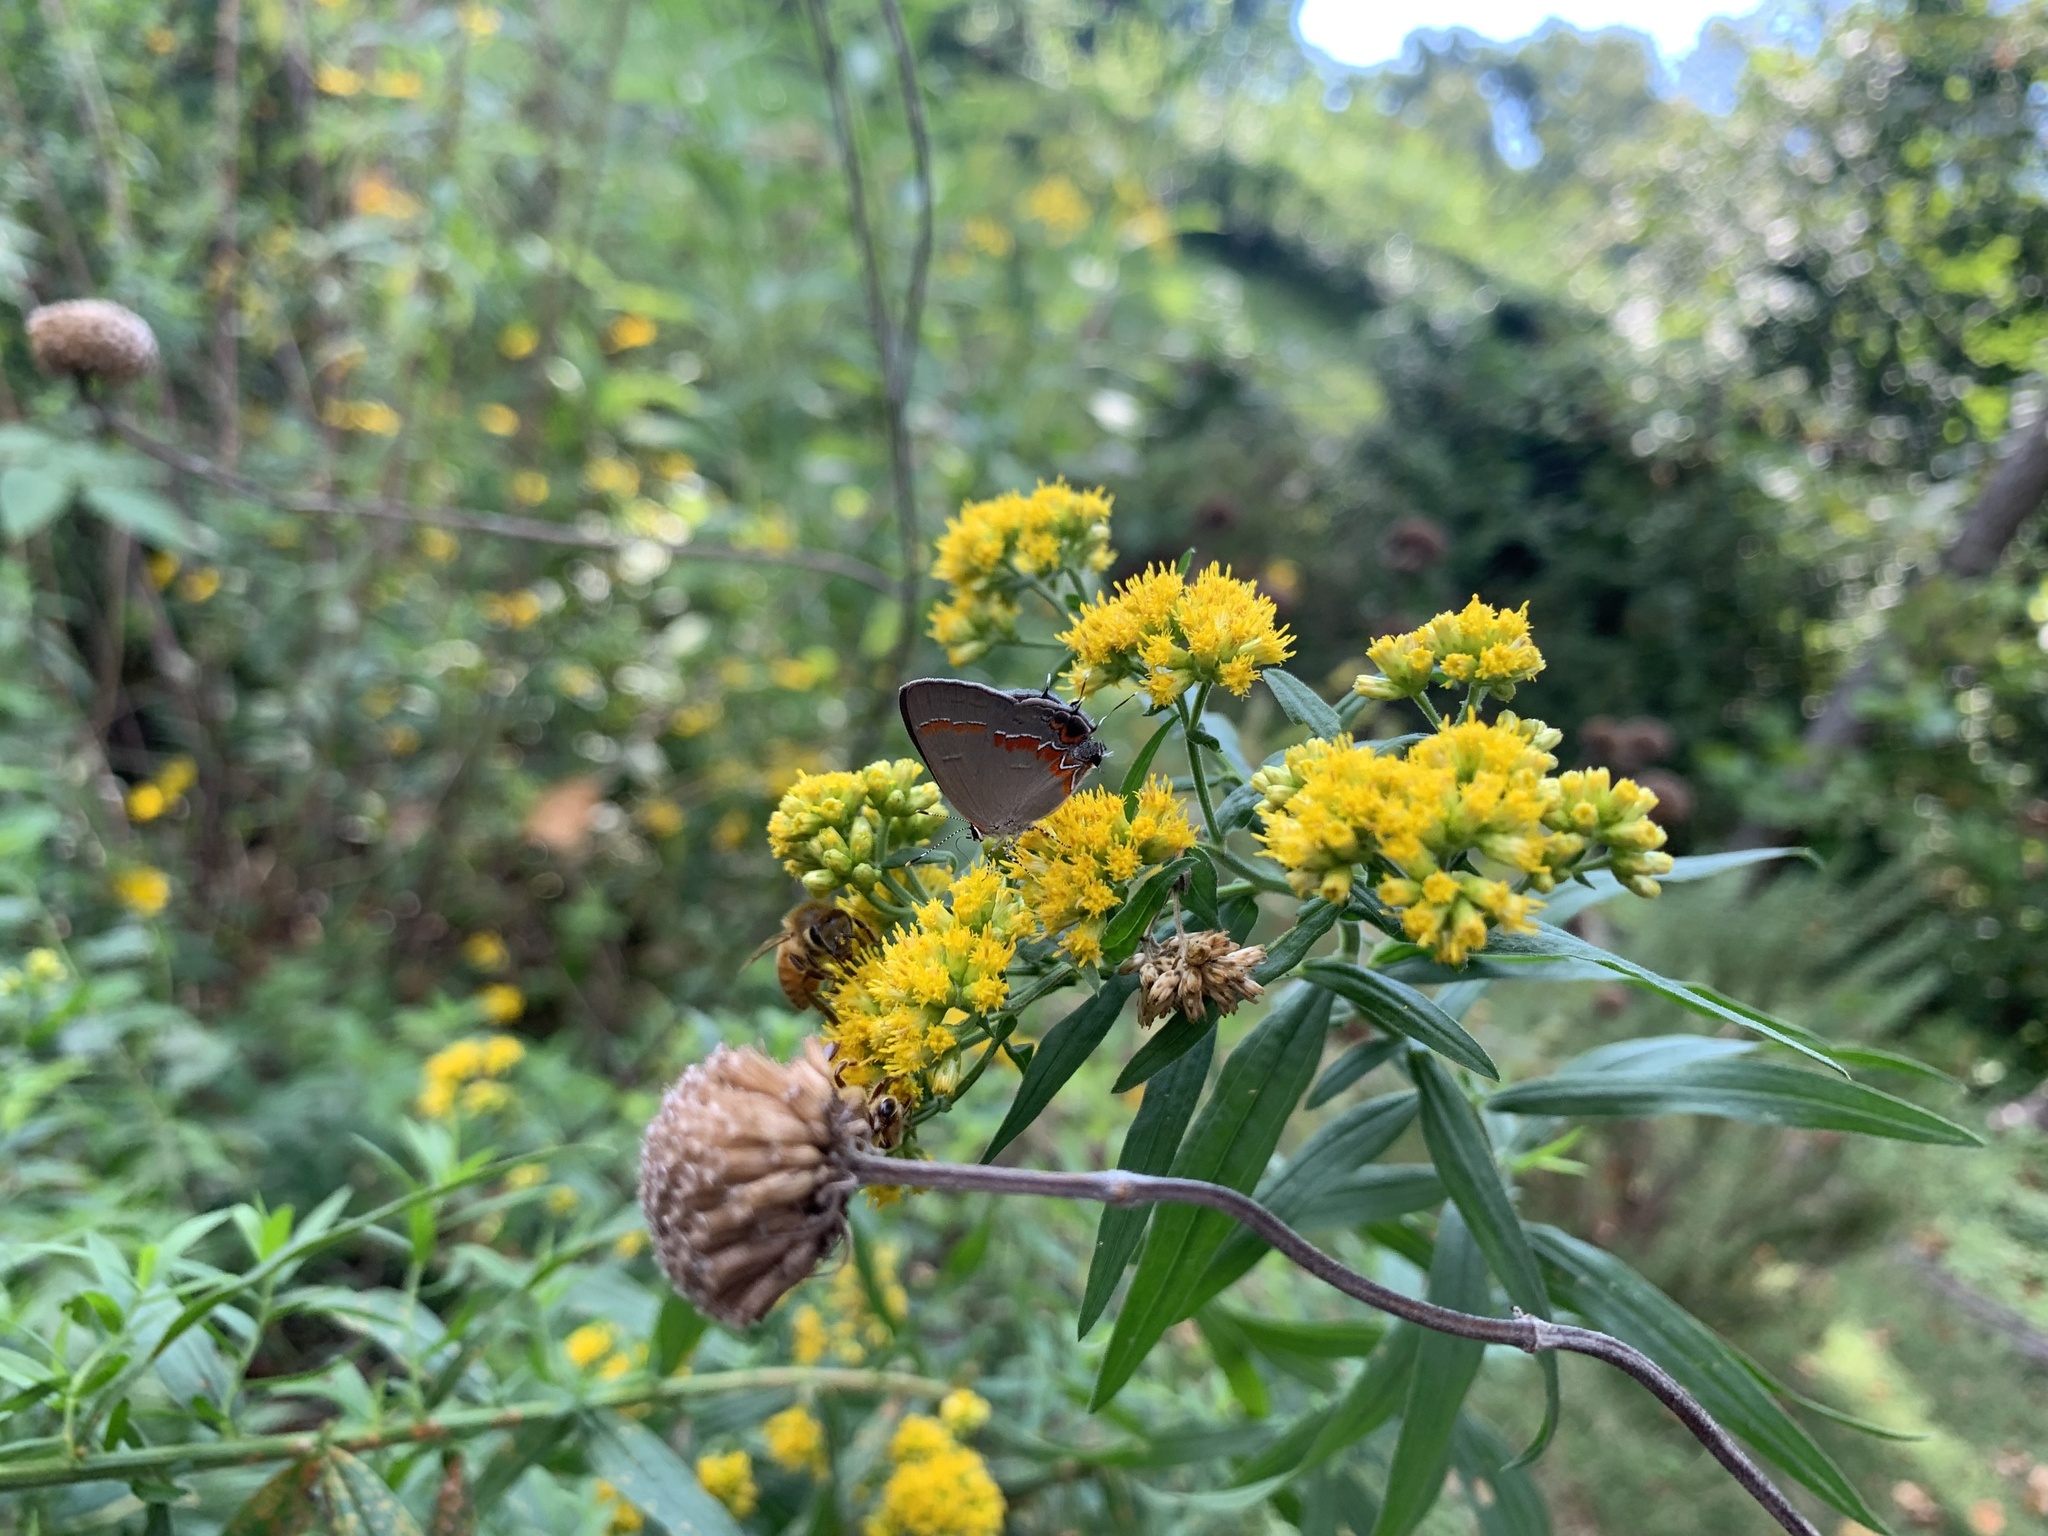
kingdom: Animalia
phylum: Arthropoda
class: Insecta
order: Lepidoptera
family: Lycaenidae
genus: Calycopis
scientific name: Calycopis cecrops
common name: Red-banded hairstreak
